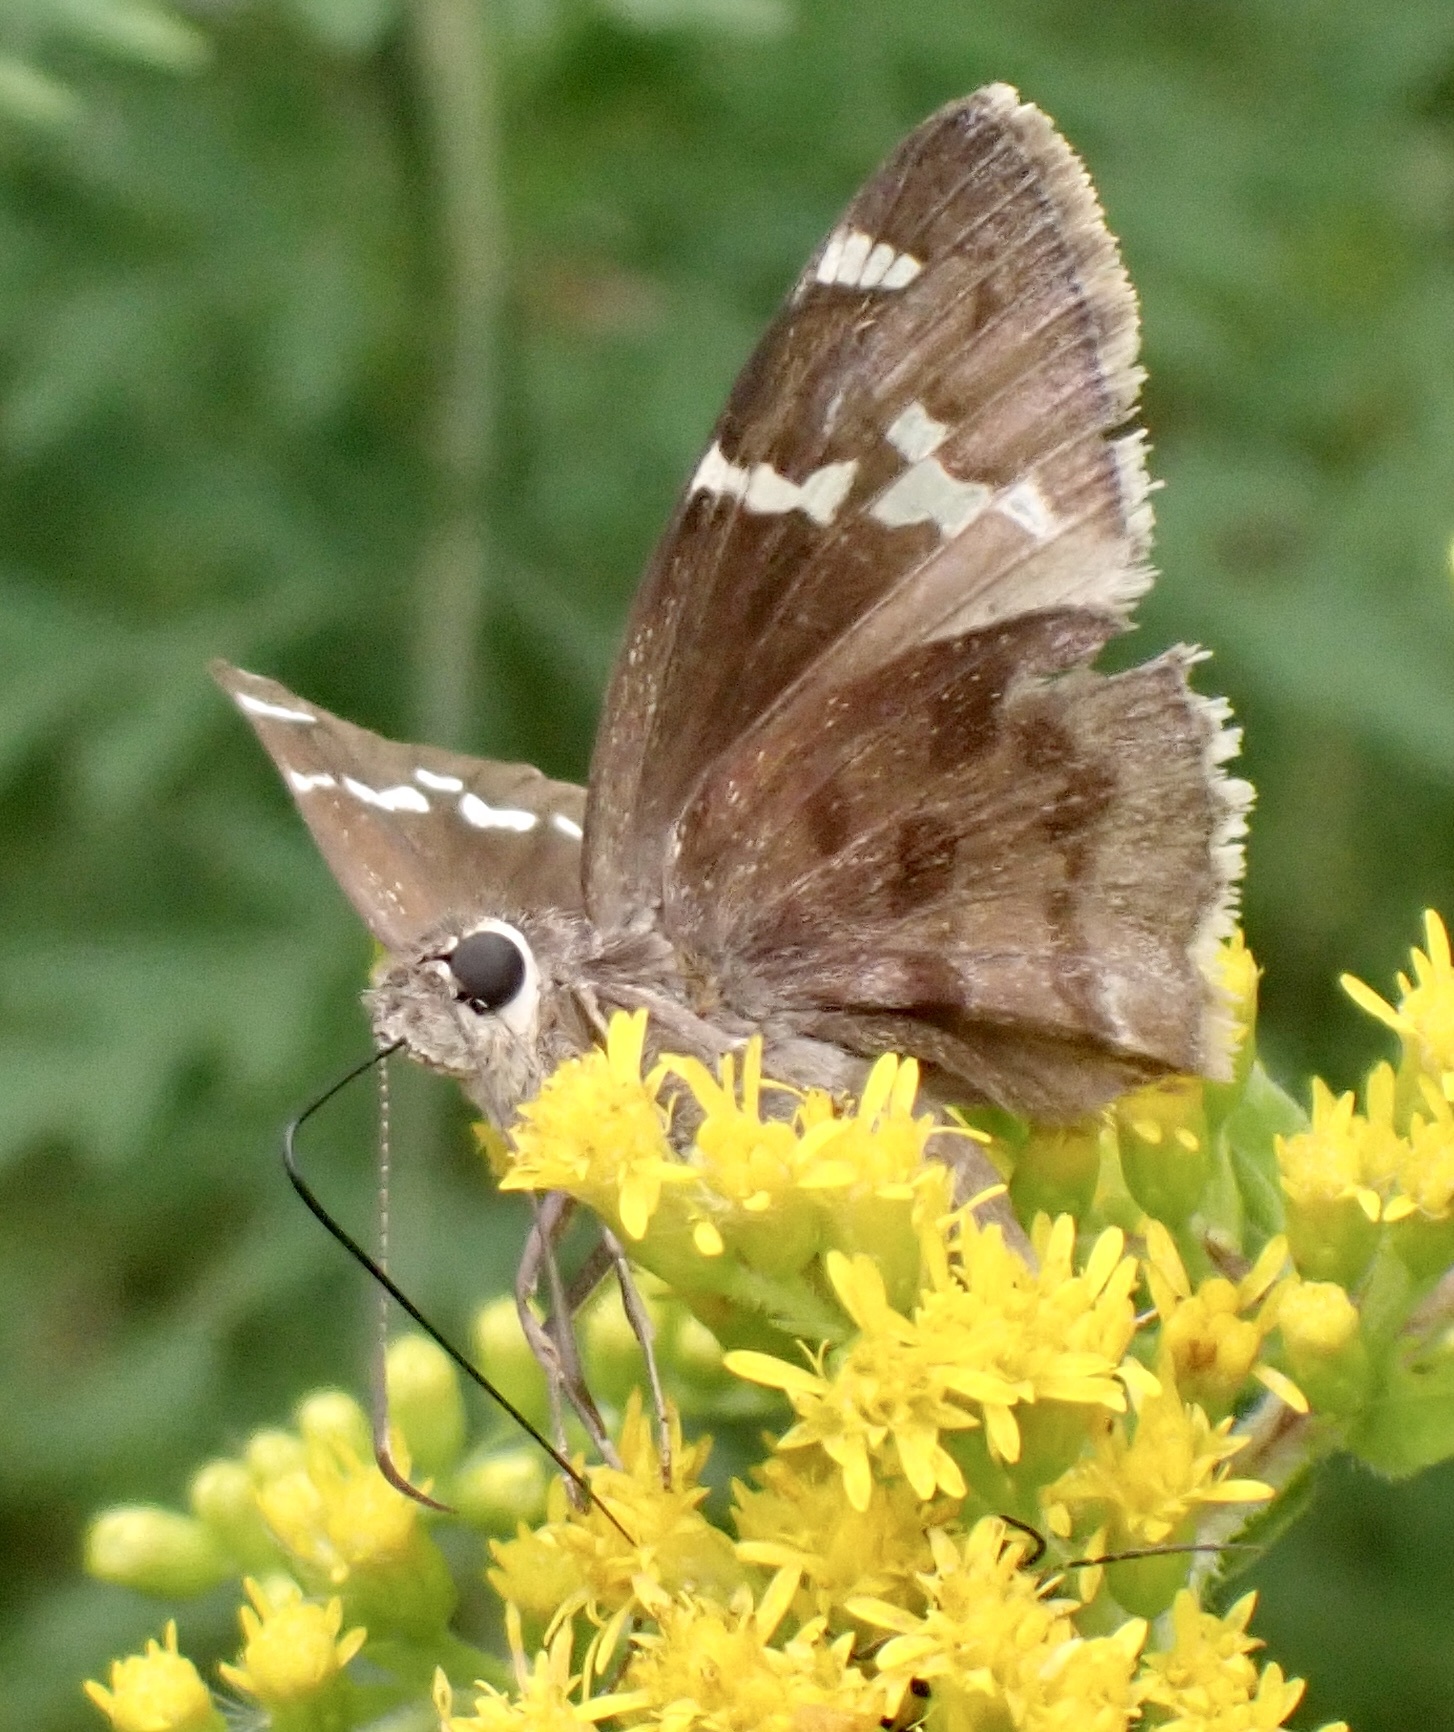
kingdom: Animalia
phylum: Arthropoda
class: Insecta
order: Lepidoptera
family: Hesperiidae
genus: Thorybes
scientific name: Thorybes daunus
